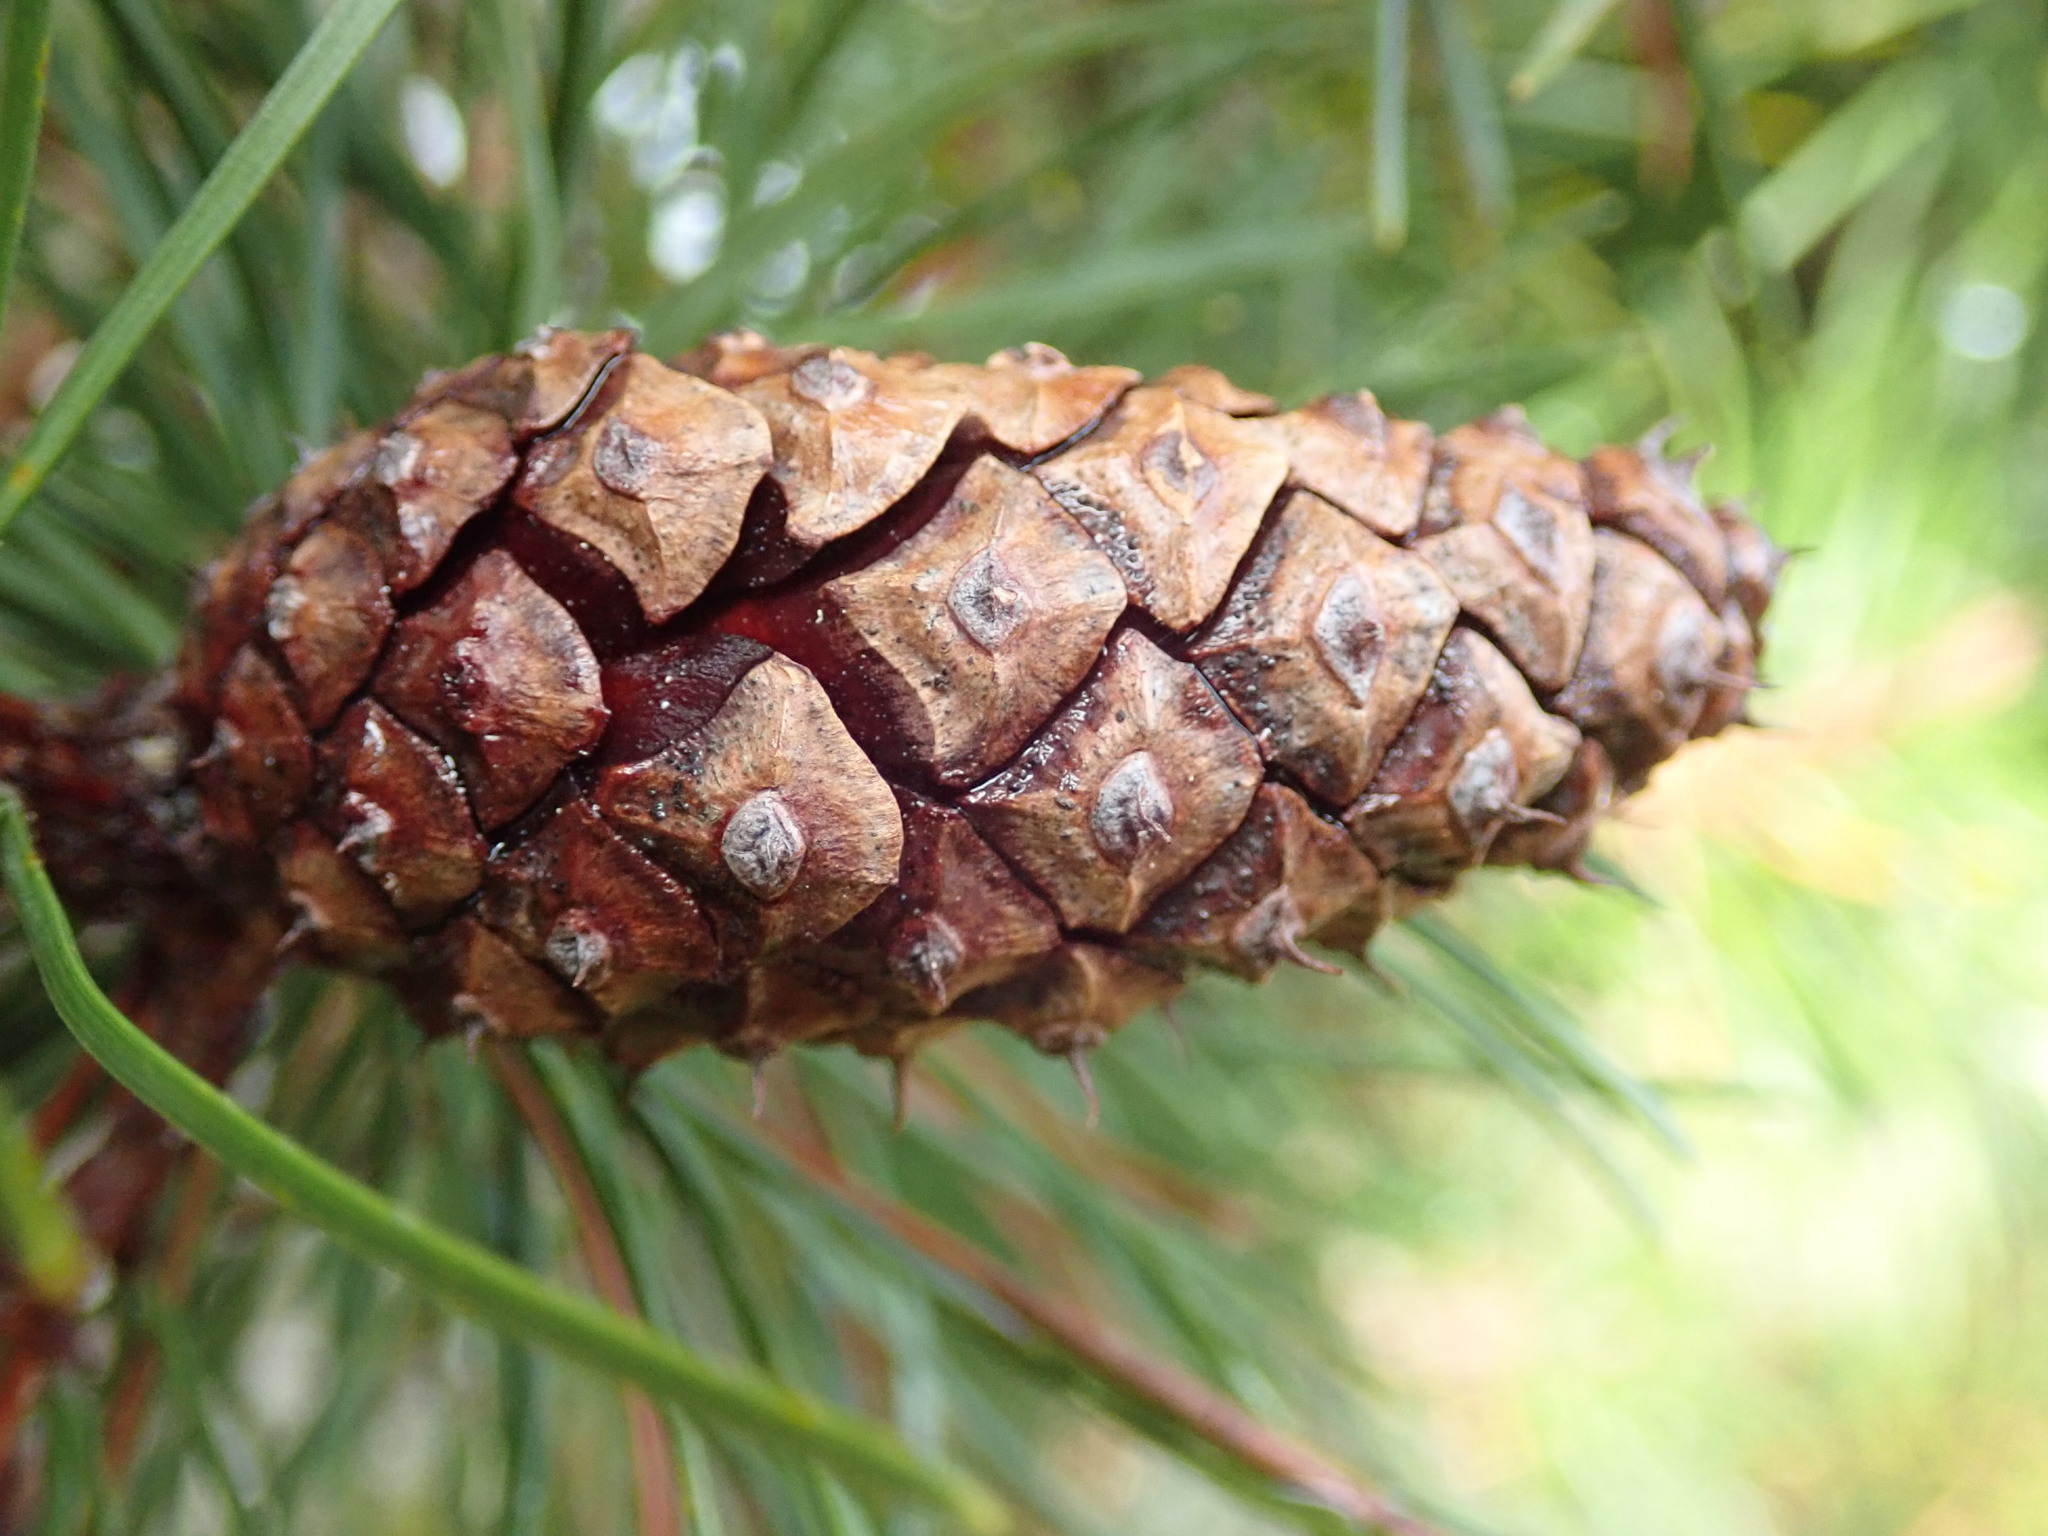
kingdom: Plantae
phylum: Tracheophyta
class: Pinopsida
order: Pinales
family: Pinaceae
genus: Pinus
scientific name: Pinus contorta
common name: Lodgepole pine
